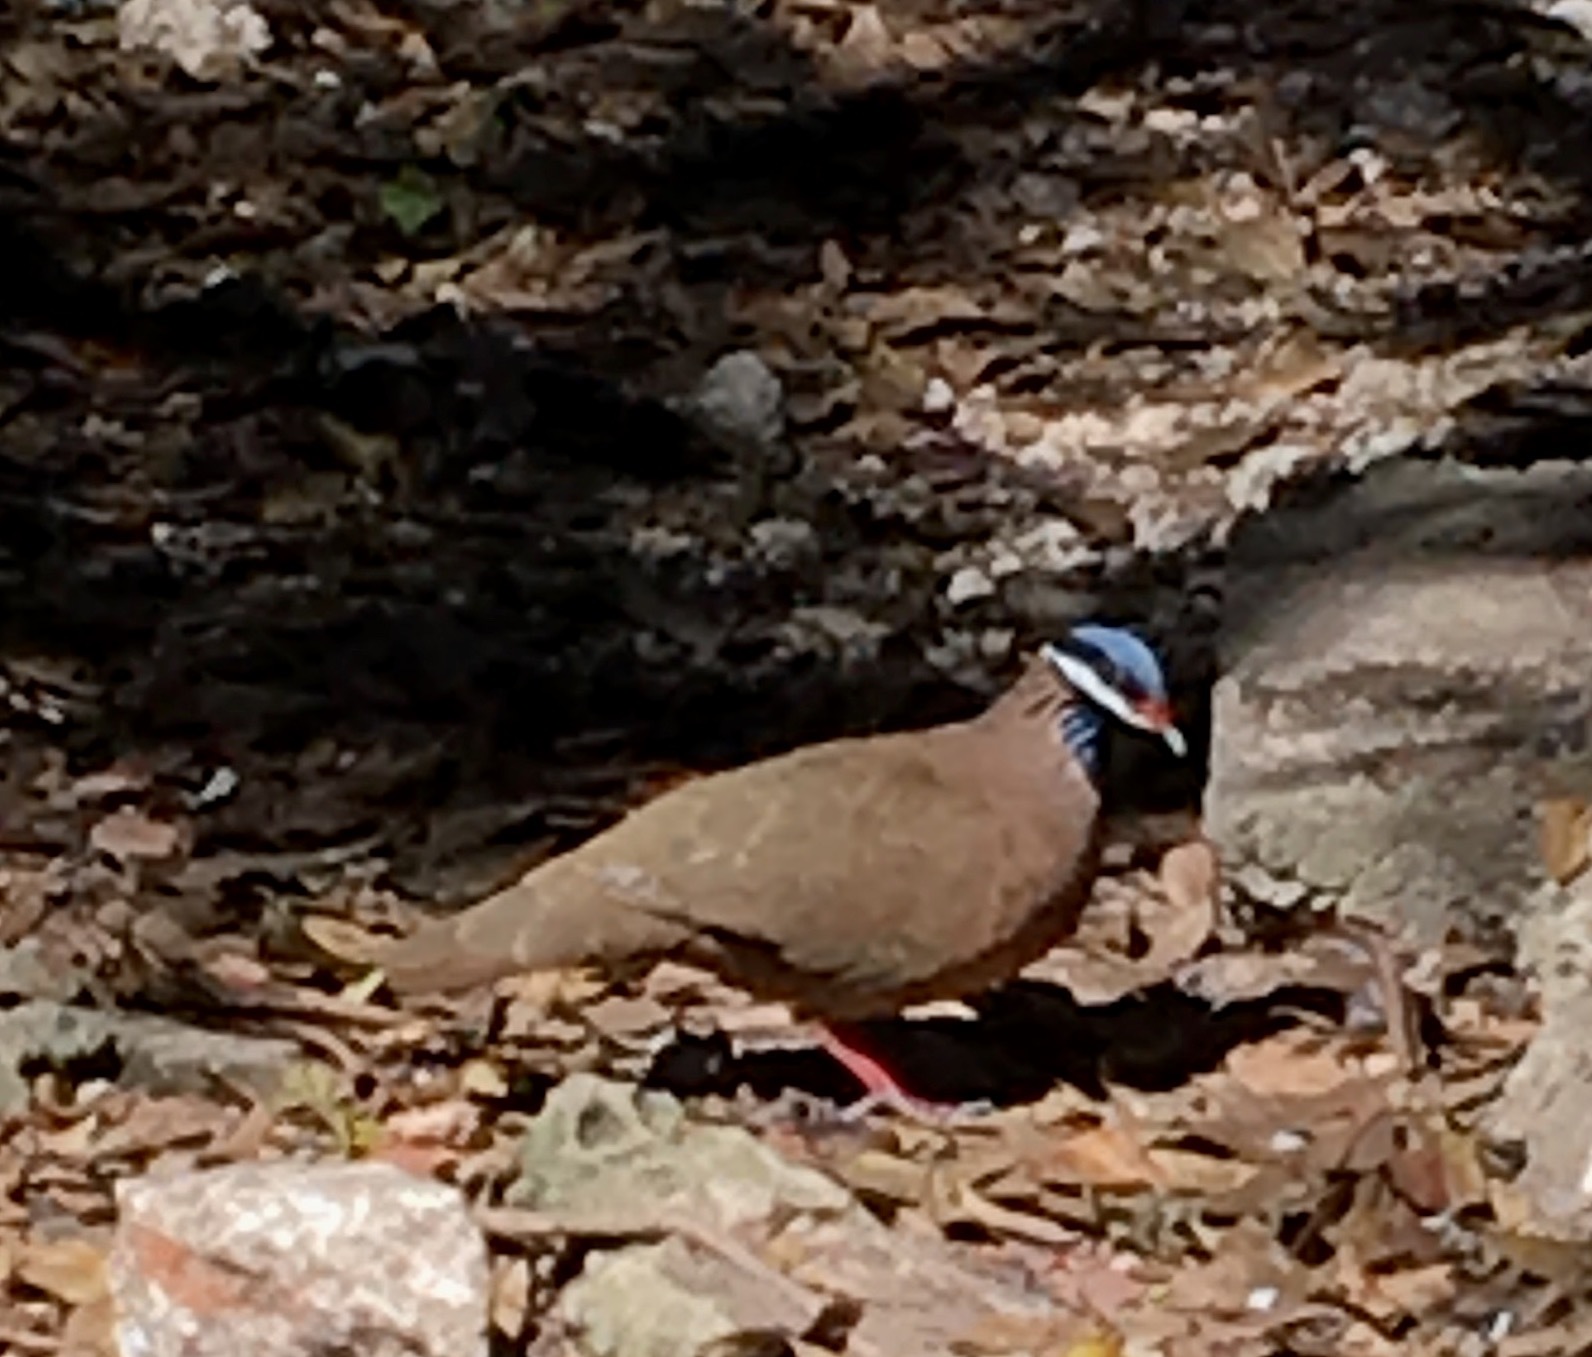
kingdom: Animalia
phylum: Chordata
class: Aves
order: Columbiformes
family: Columbidae
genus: Starnoenas
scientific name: Starnoenas cyanocephala
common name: Blue-headed quail-dove
